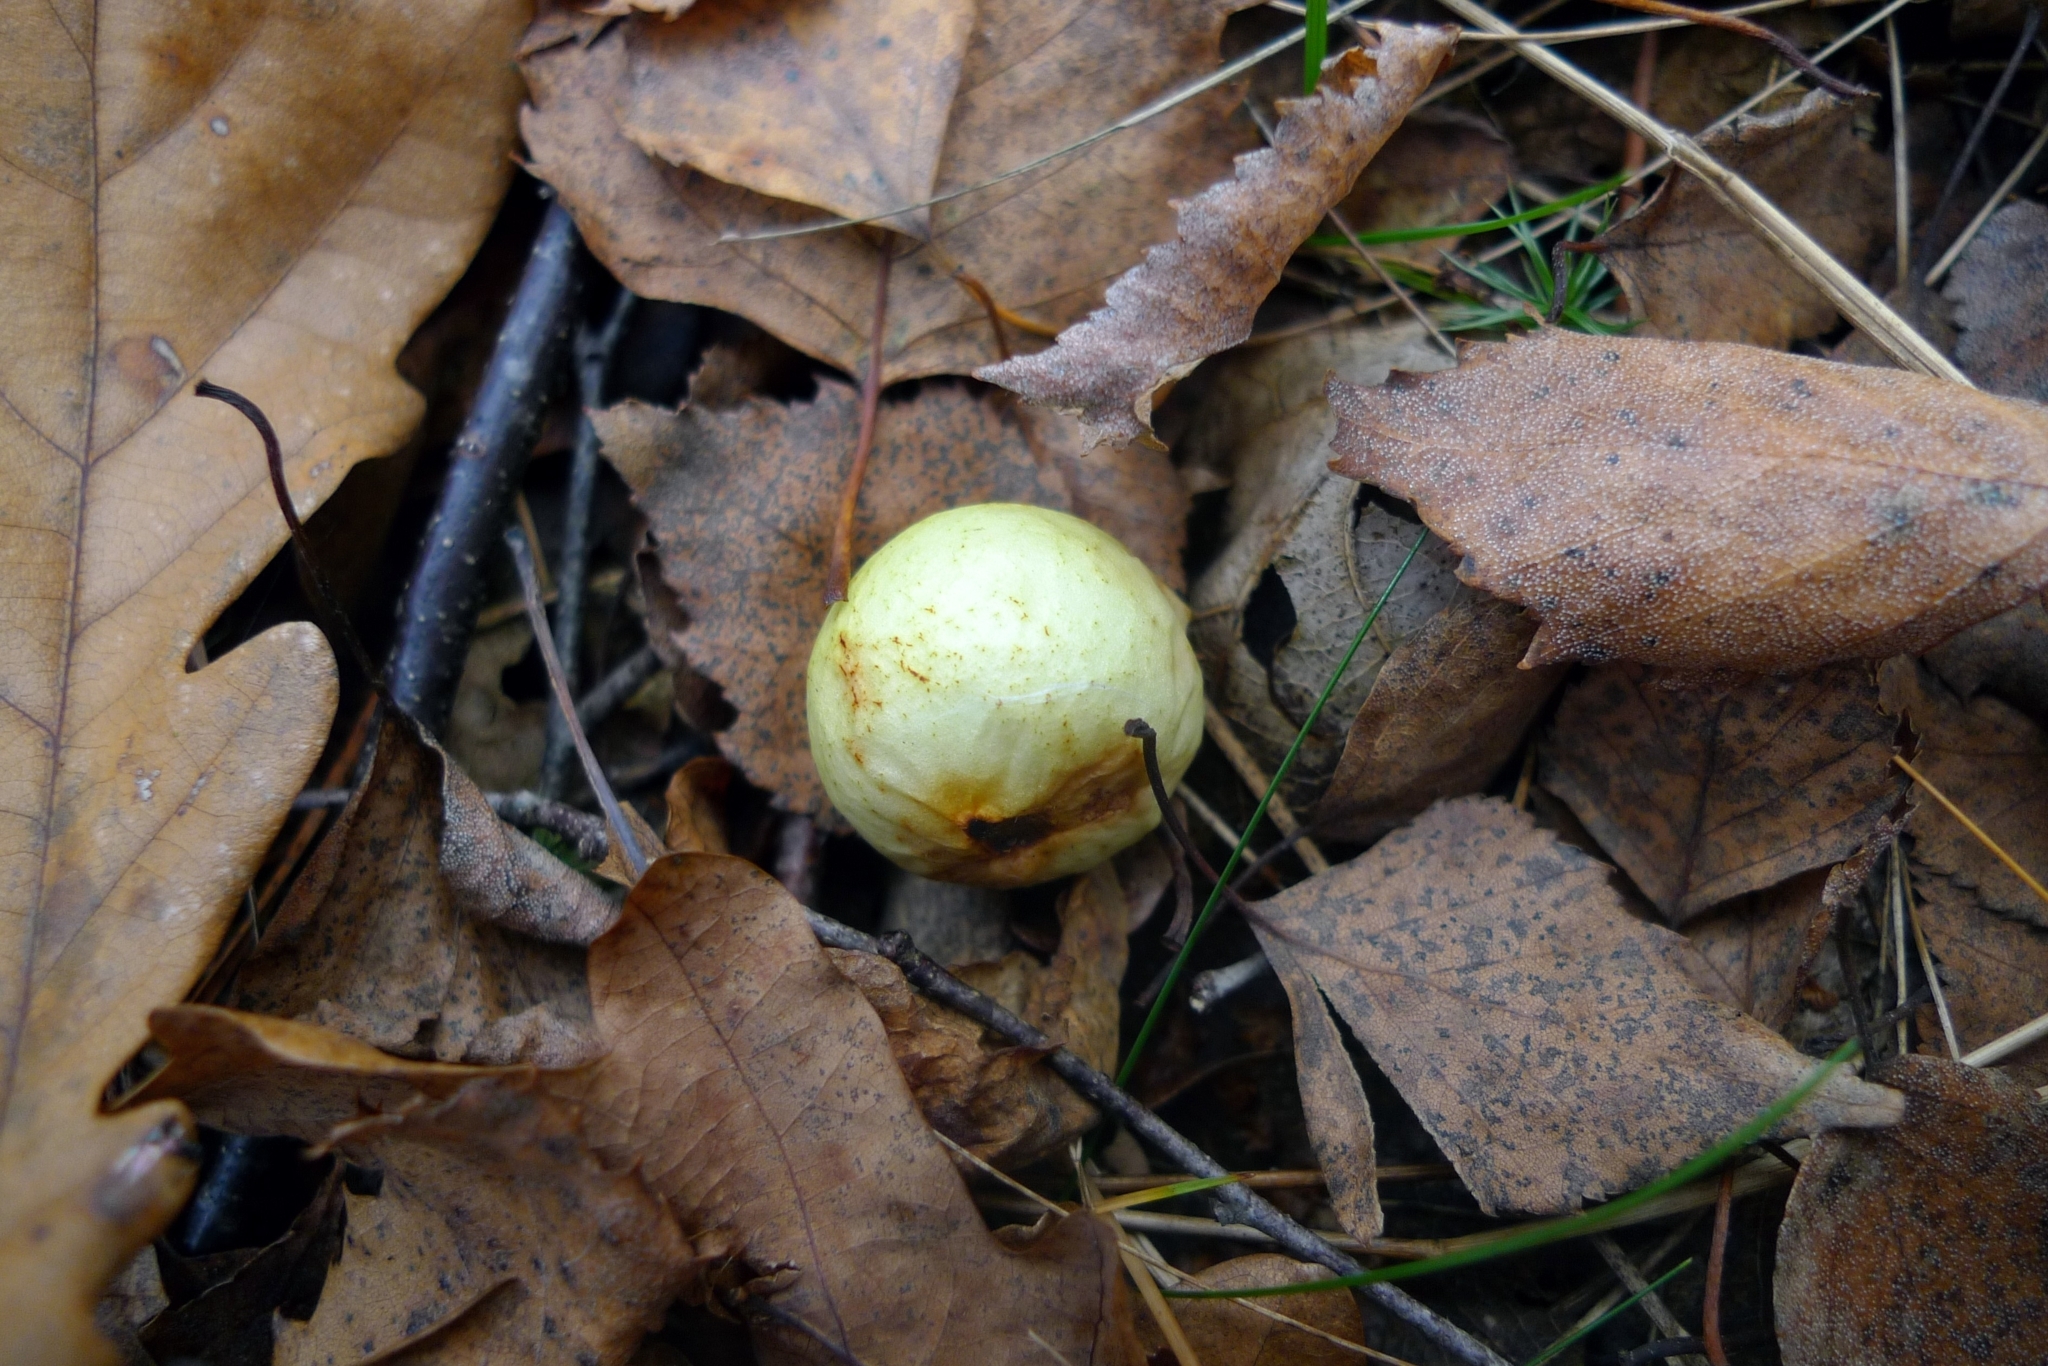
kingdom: Animalia
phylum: Arthropoda
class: Insecta
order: Hymenoptera
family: Cynipidae
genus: Cynips
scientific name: Cynips quercusfolii
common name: Cherry gall
